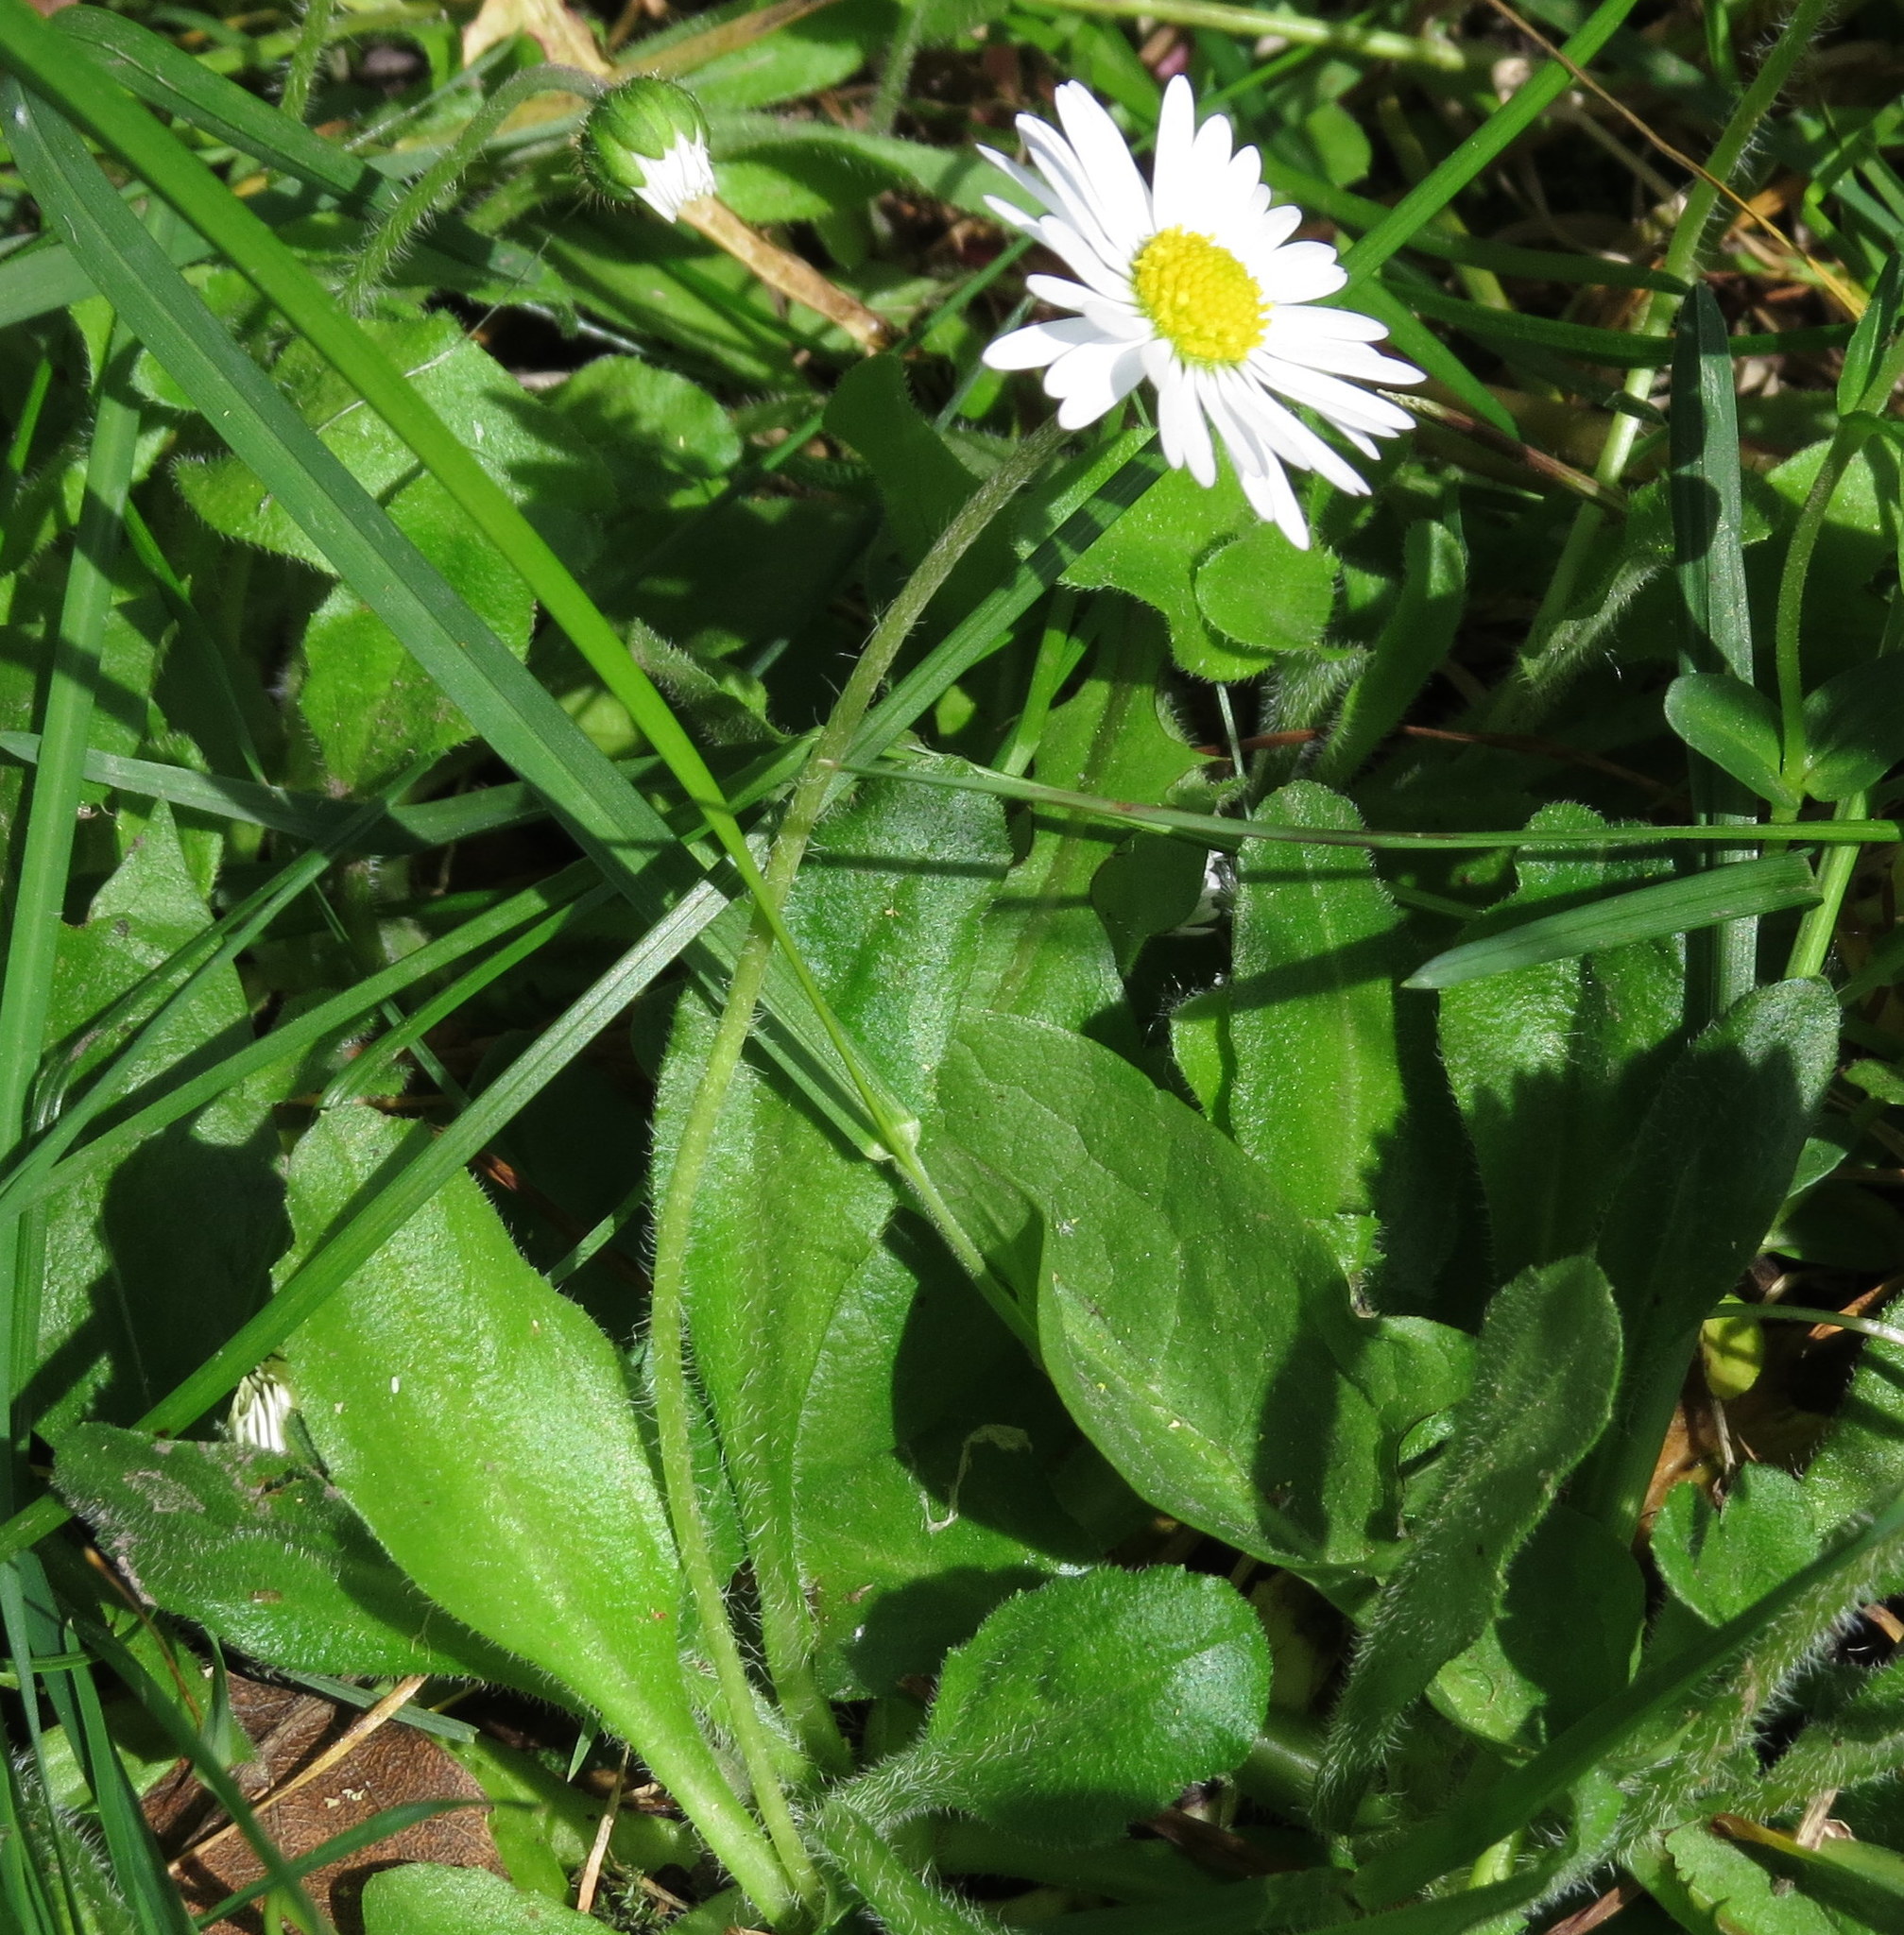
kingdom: Plantae
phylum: Tracheophyta
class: Magnoliopsida
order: Asterales
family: Asteraceae
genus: Bellis
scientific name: Bellis perennis
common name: Lawndaisy
